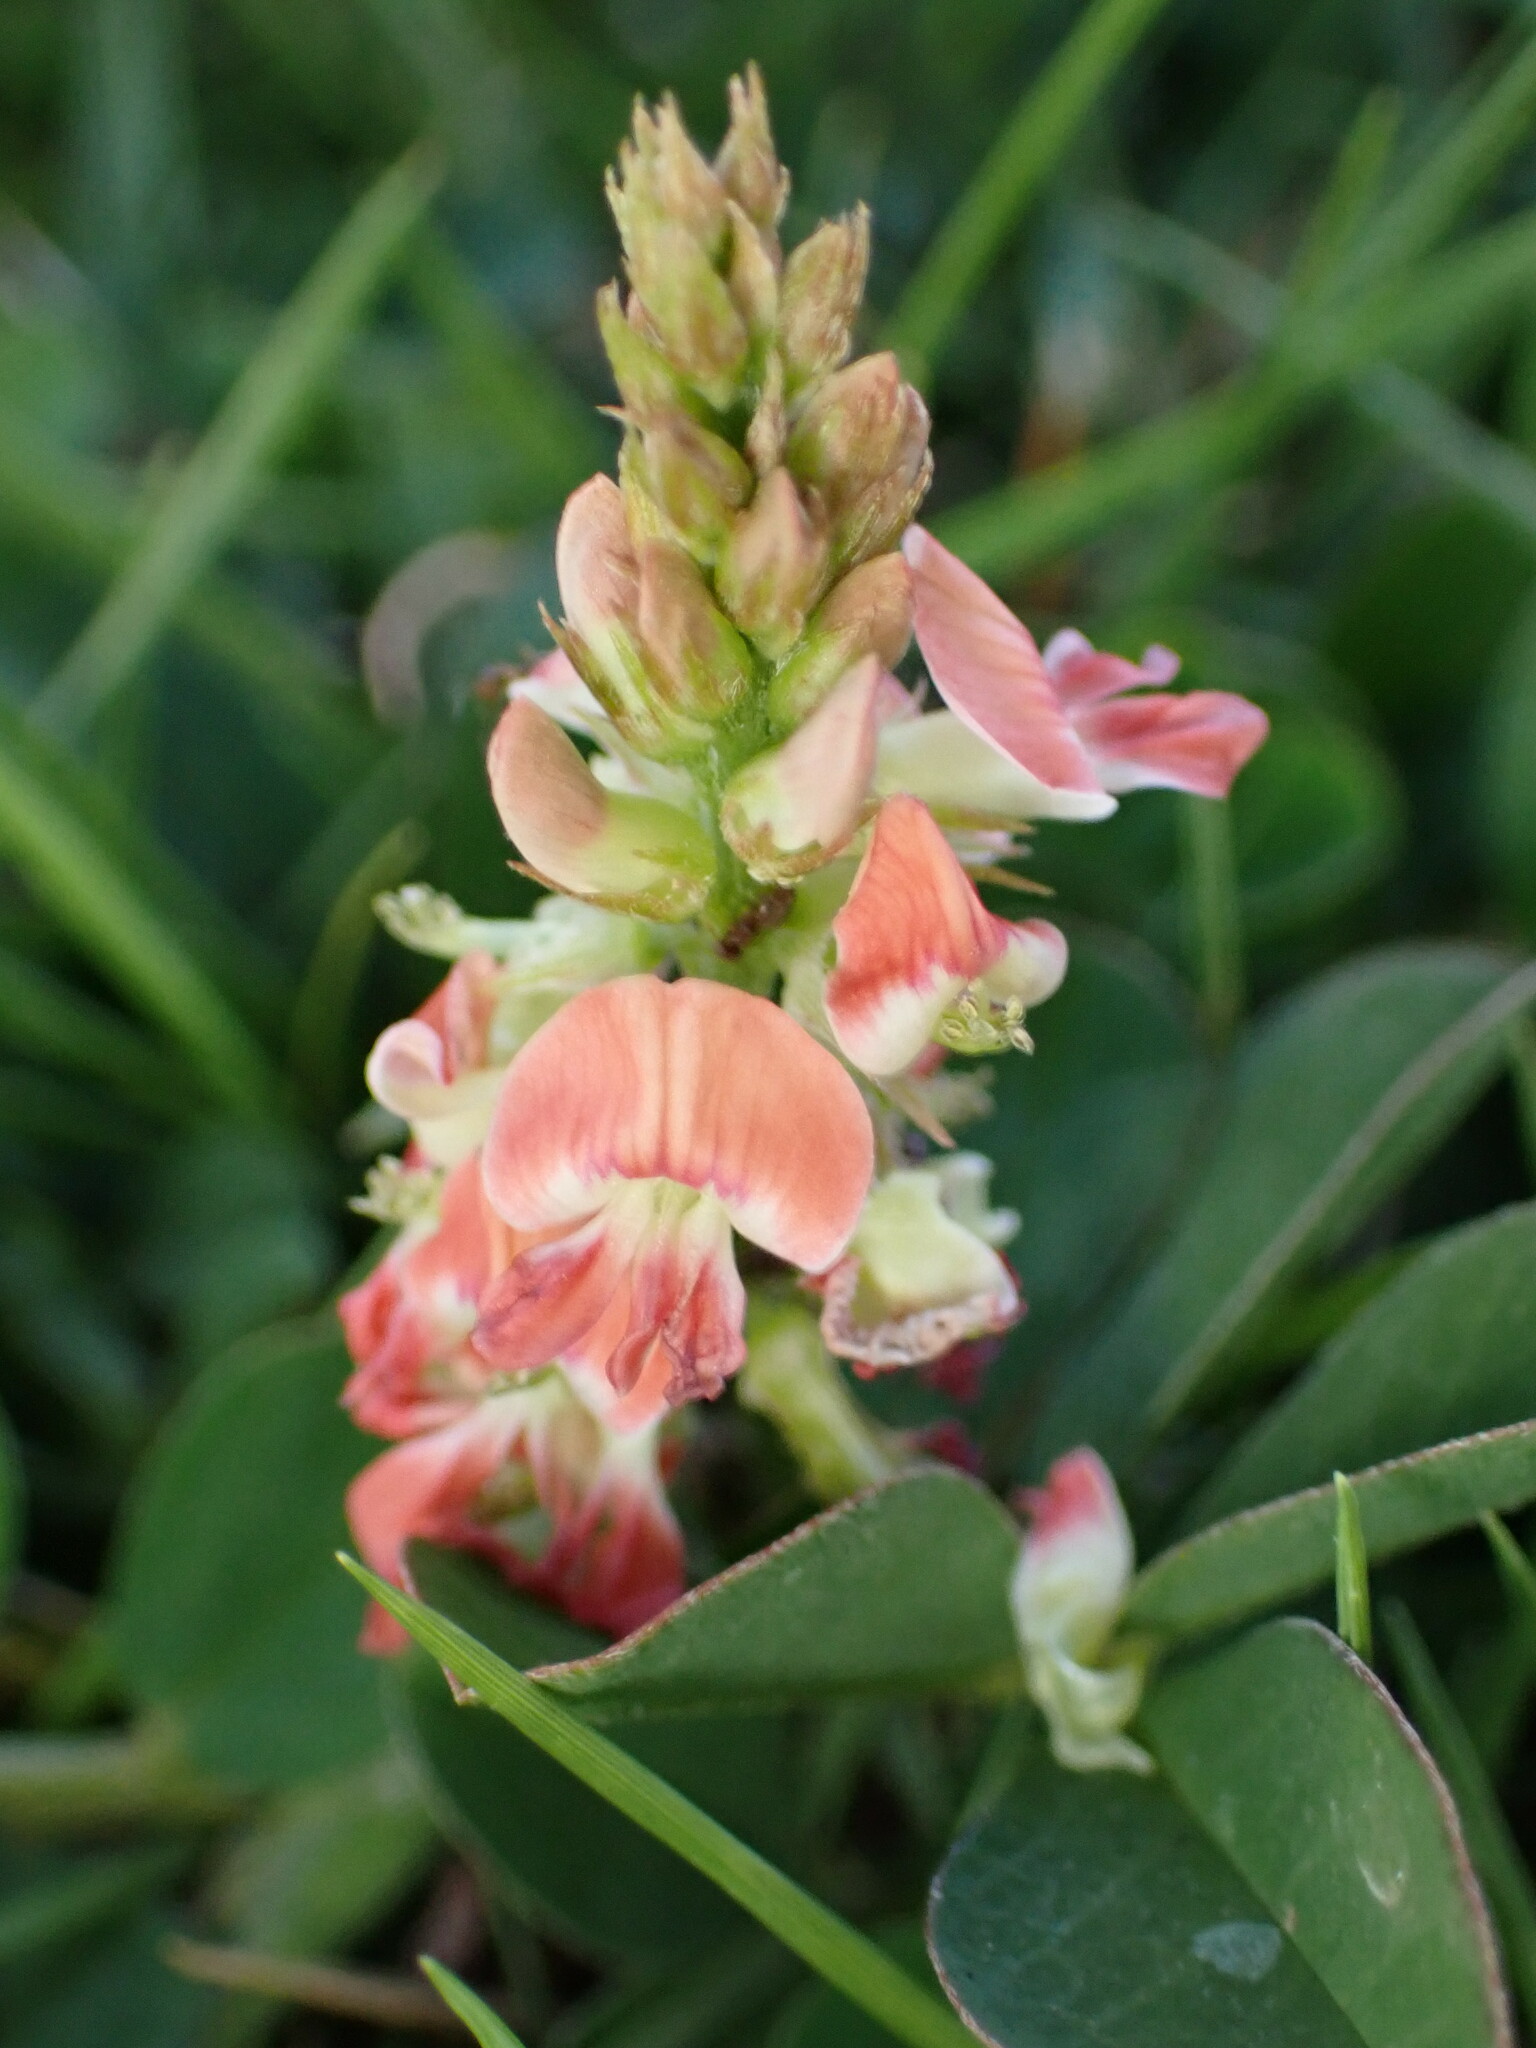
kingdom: Plantae
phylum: Tracheophyta
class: Magnoliopsida
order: Fabales
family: Fabaceae
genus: Indigofera
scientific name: Indigofera spicata
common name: Creeping indigo
